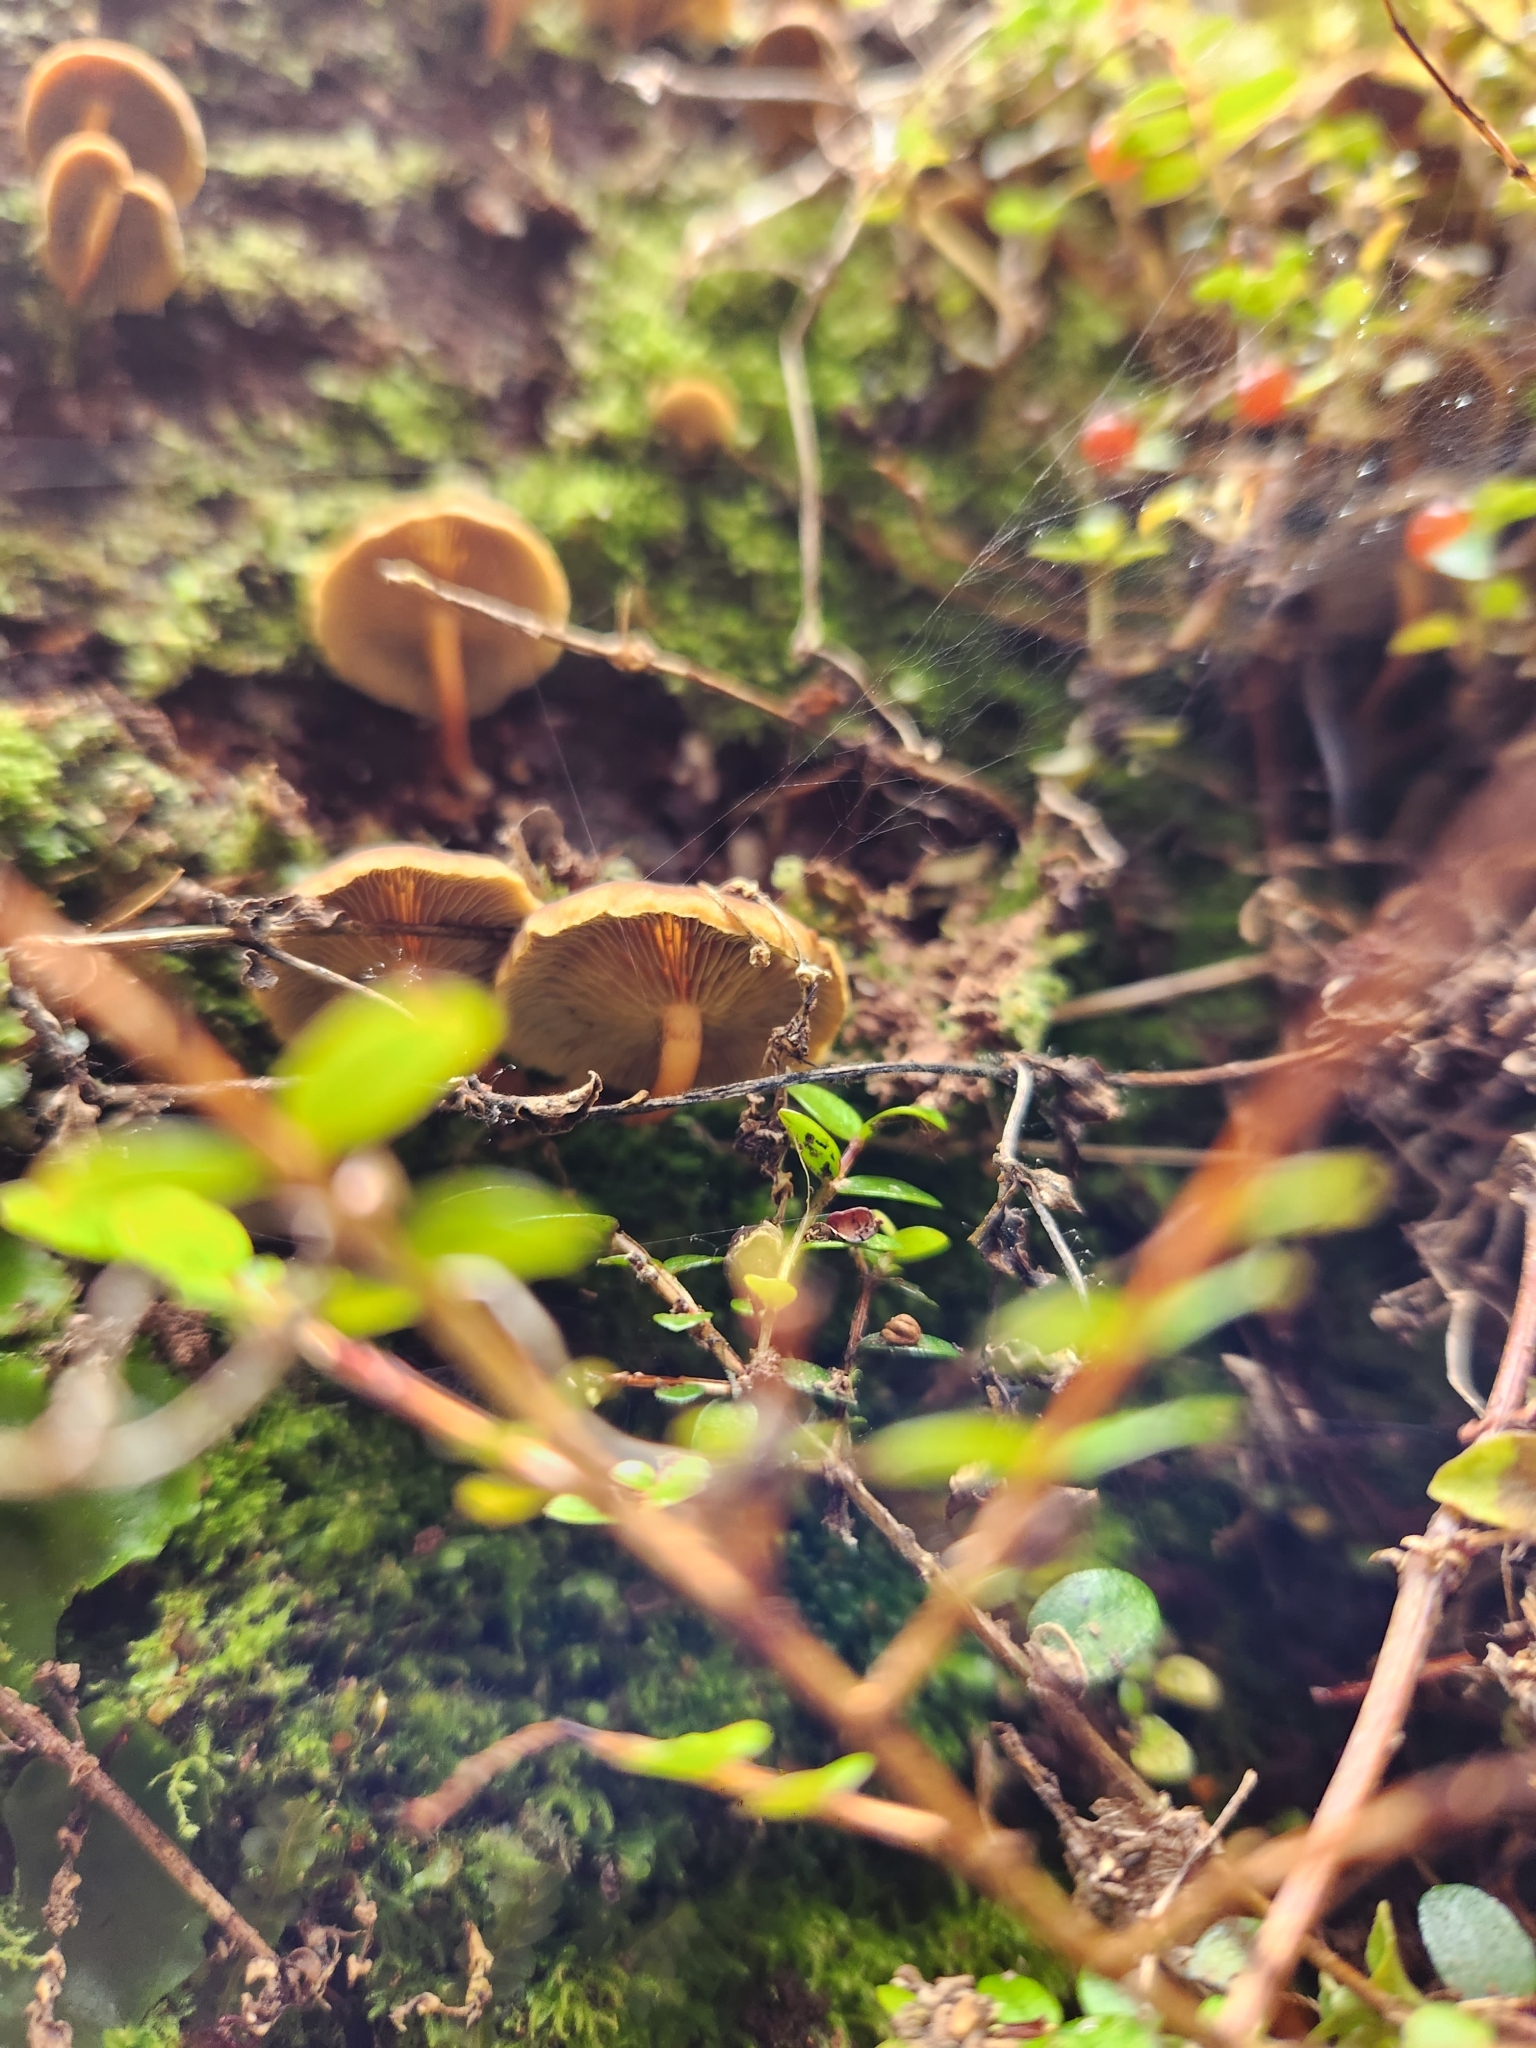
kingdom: Fungi
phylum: Basidiomycota
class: Agaricomycetes
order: Agaricales
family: Strophariaceae
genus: Hypholoma
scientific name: Hypholoma acutum
